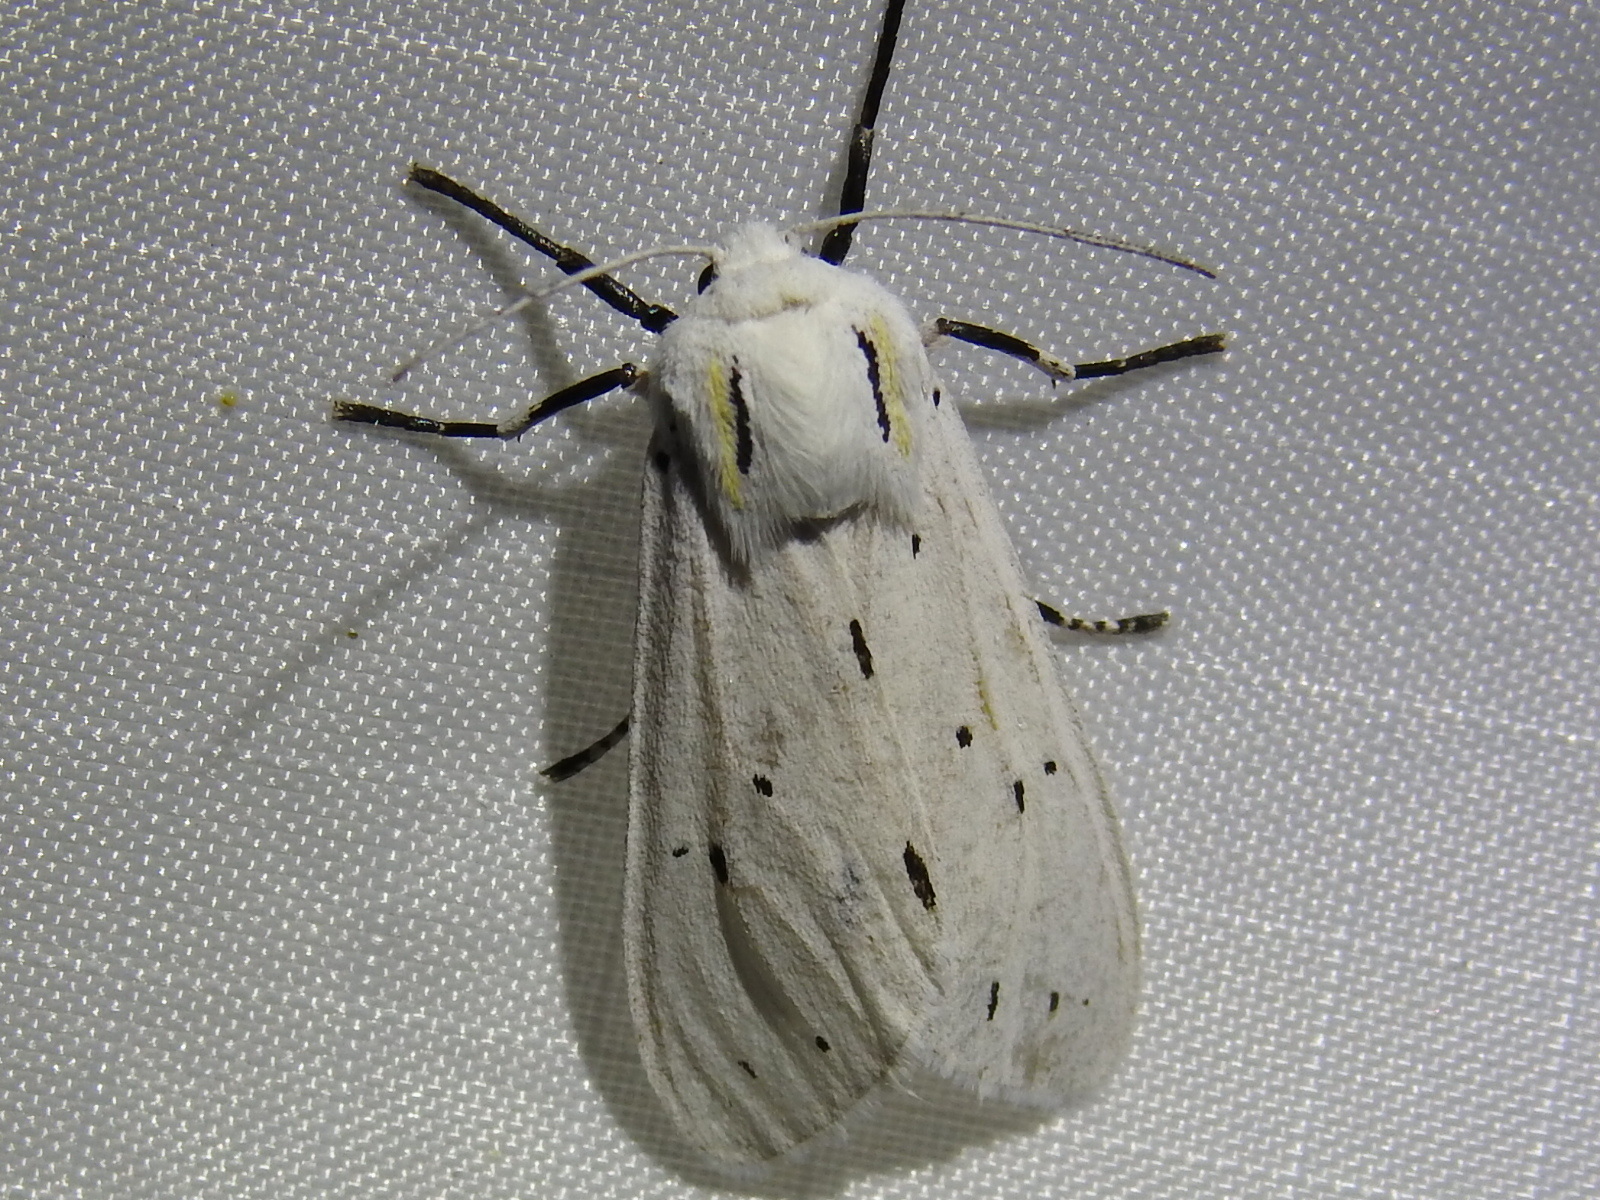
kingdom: Animalia
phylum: Arthropoda
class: Insecta
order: Lepidoptera
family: Erebidae
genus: Ectypia
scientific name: Ectypia bivittata
